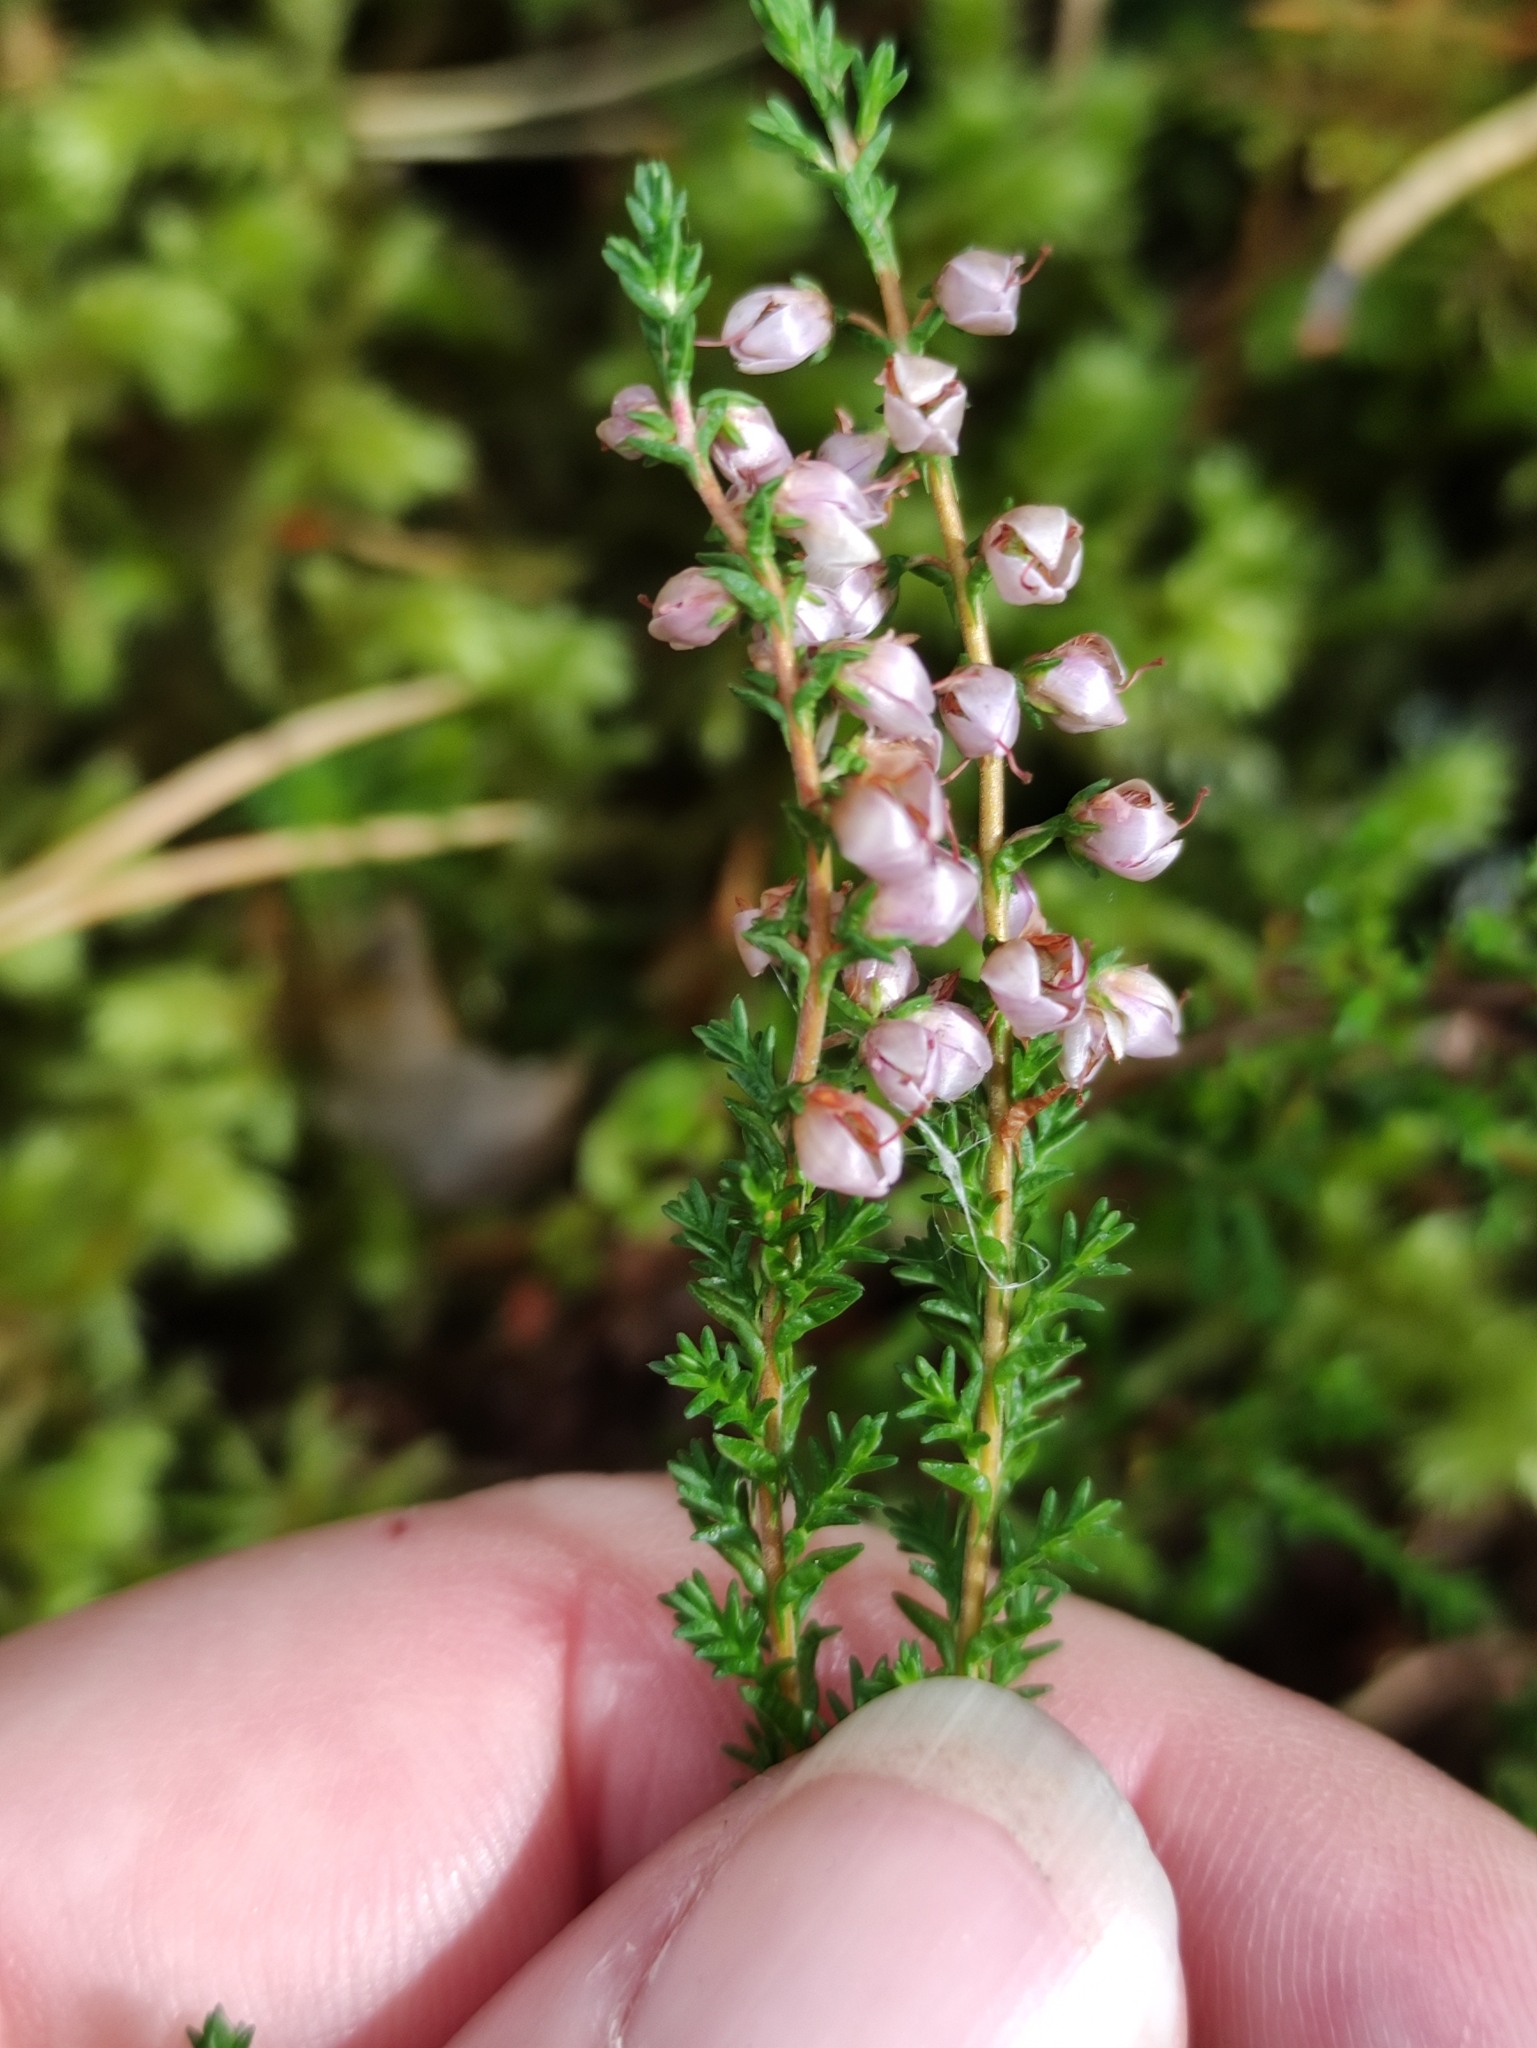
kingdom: Plantae
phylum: Tracheophyta
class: Magnoliopsida
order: Ericales
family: Ericaceae
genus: Calluna
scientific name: Calluna vulgaris
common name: Heather
